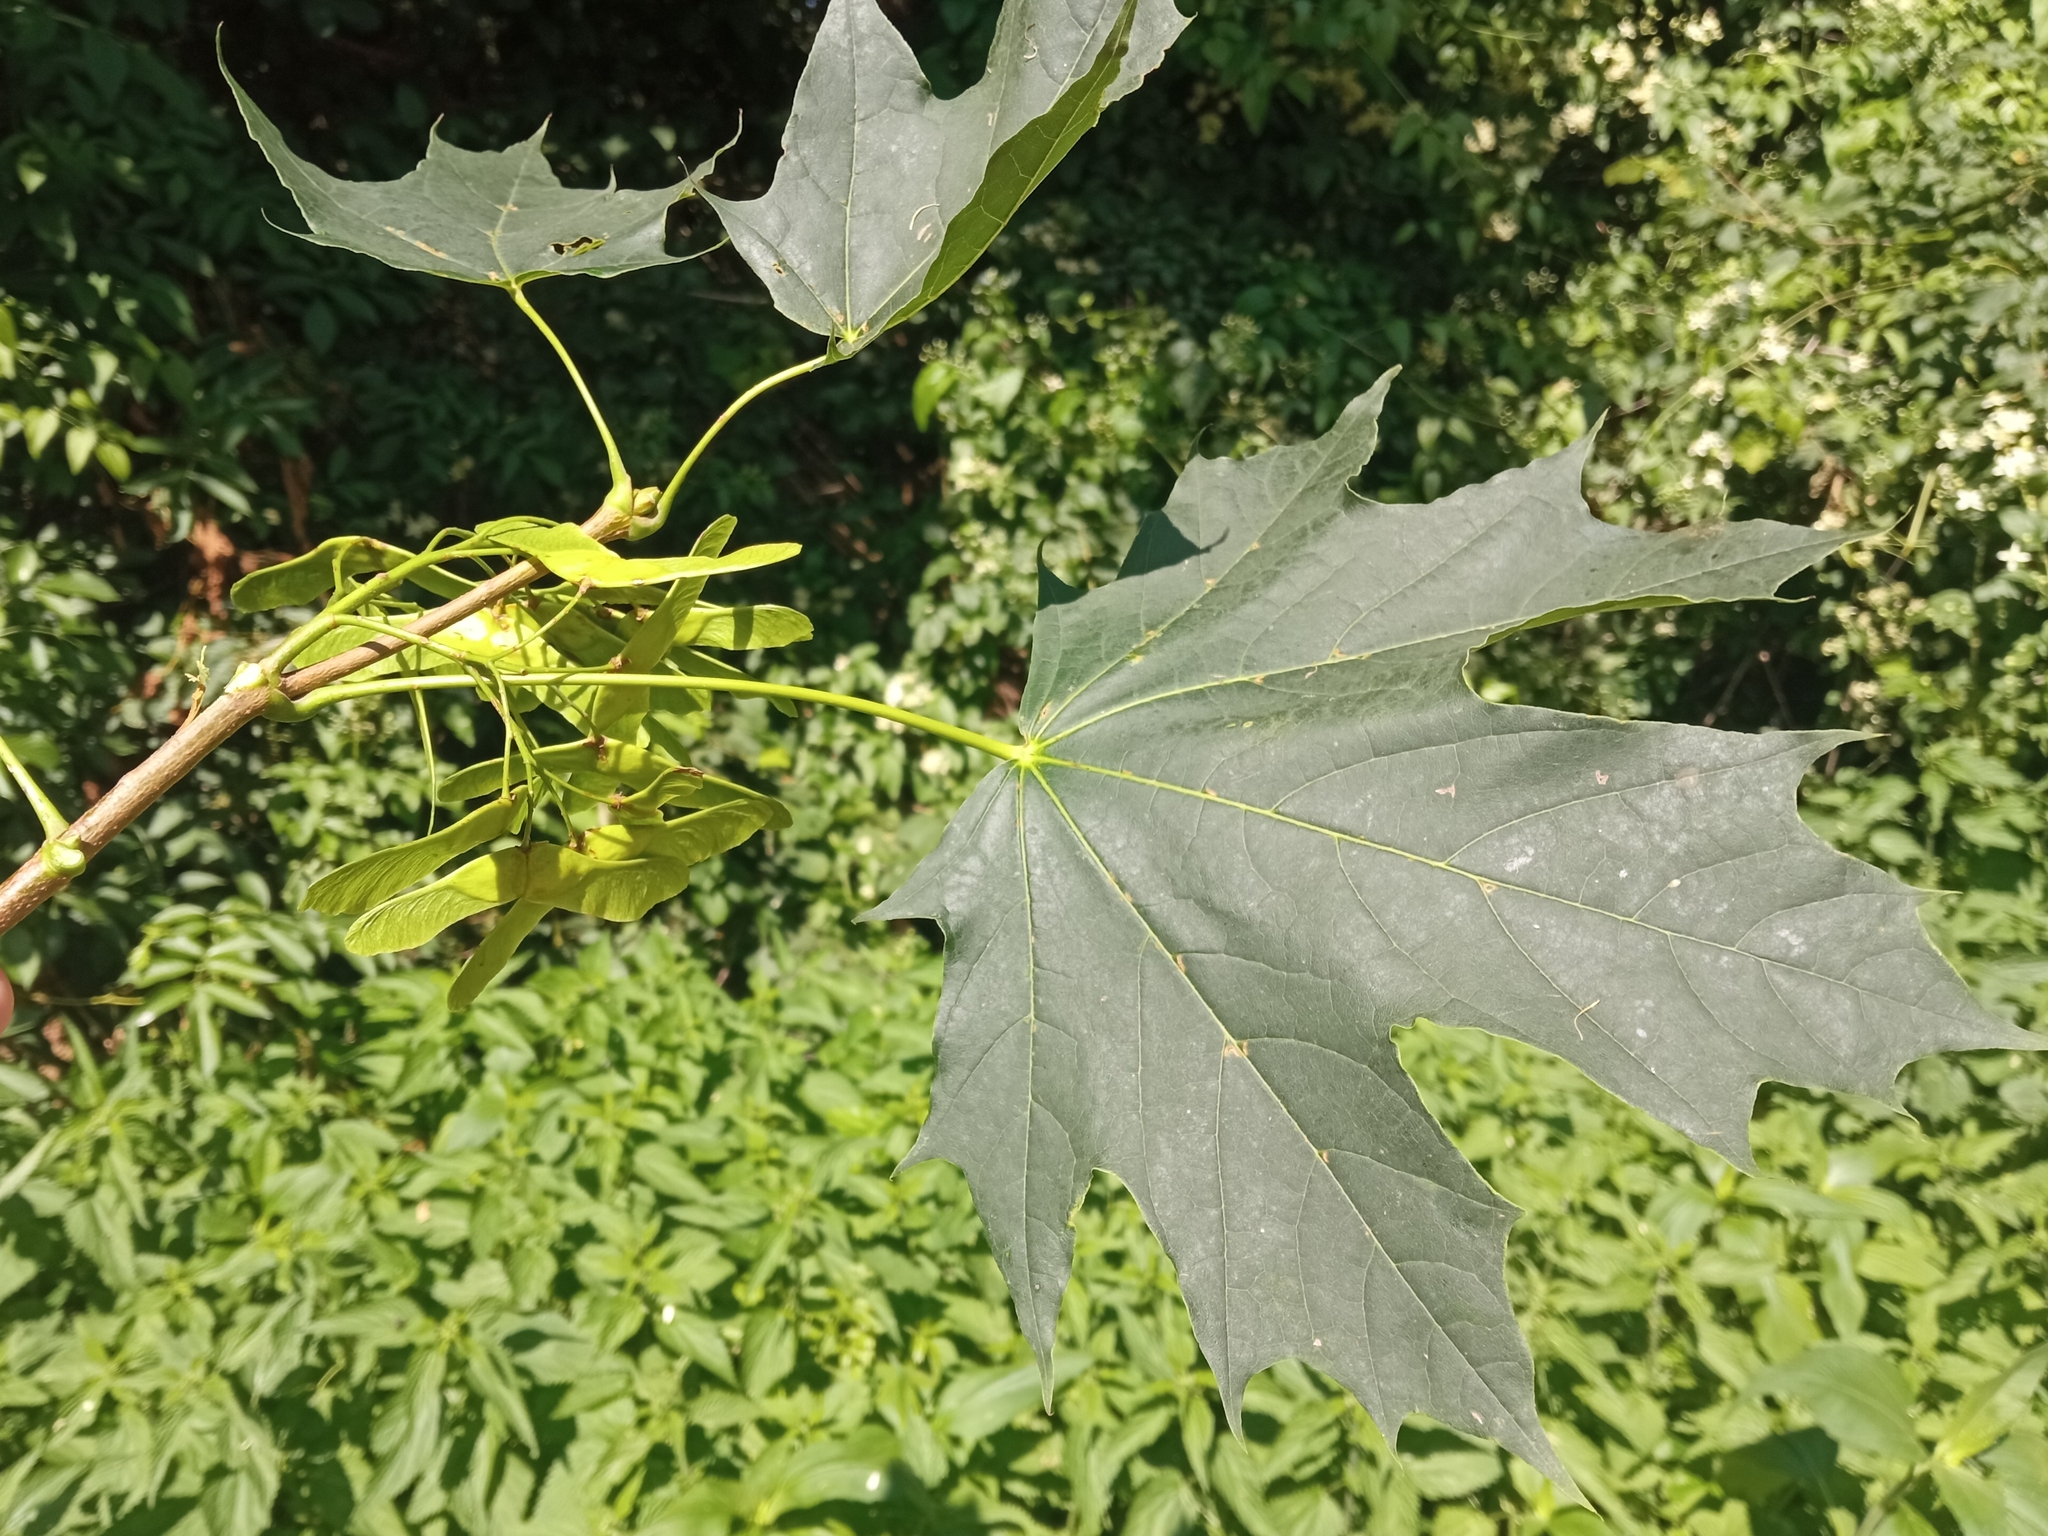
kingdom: Plantae
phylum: Tracheophyta
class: Magnoliopsida
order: Sapindales
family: Sapindaceae
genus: Acer
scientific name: Acer platanoides
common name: Norway maple
